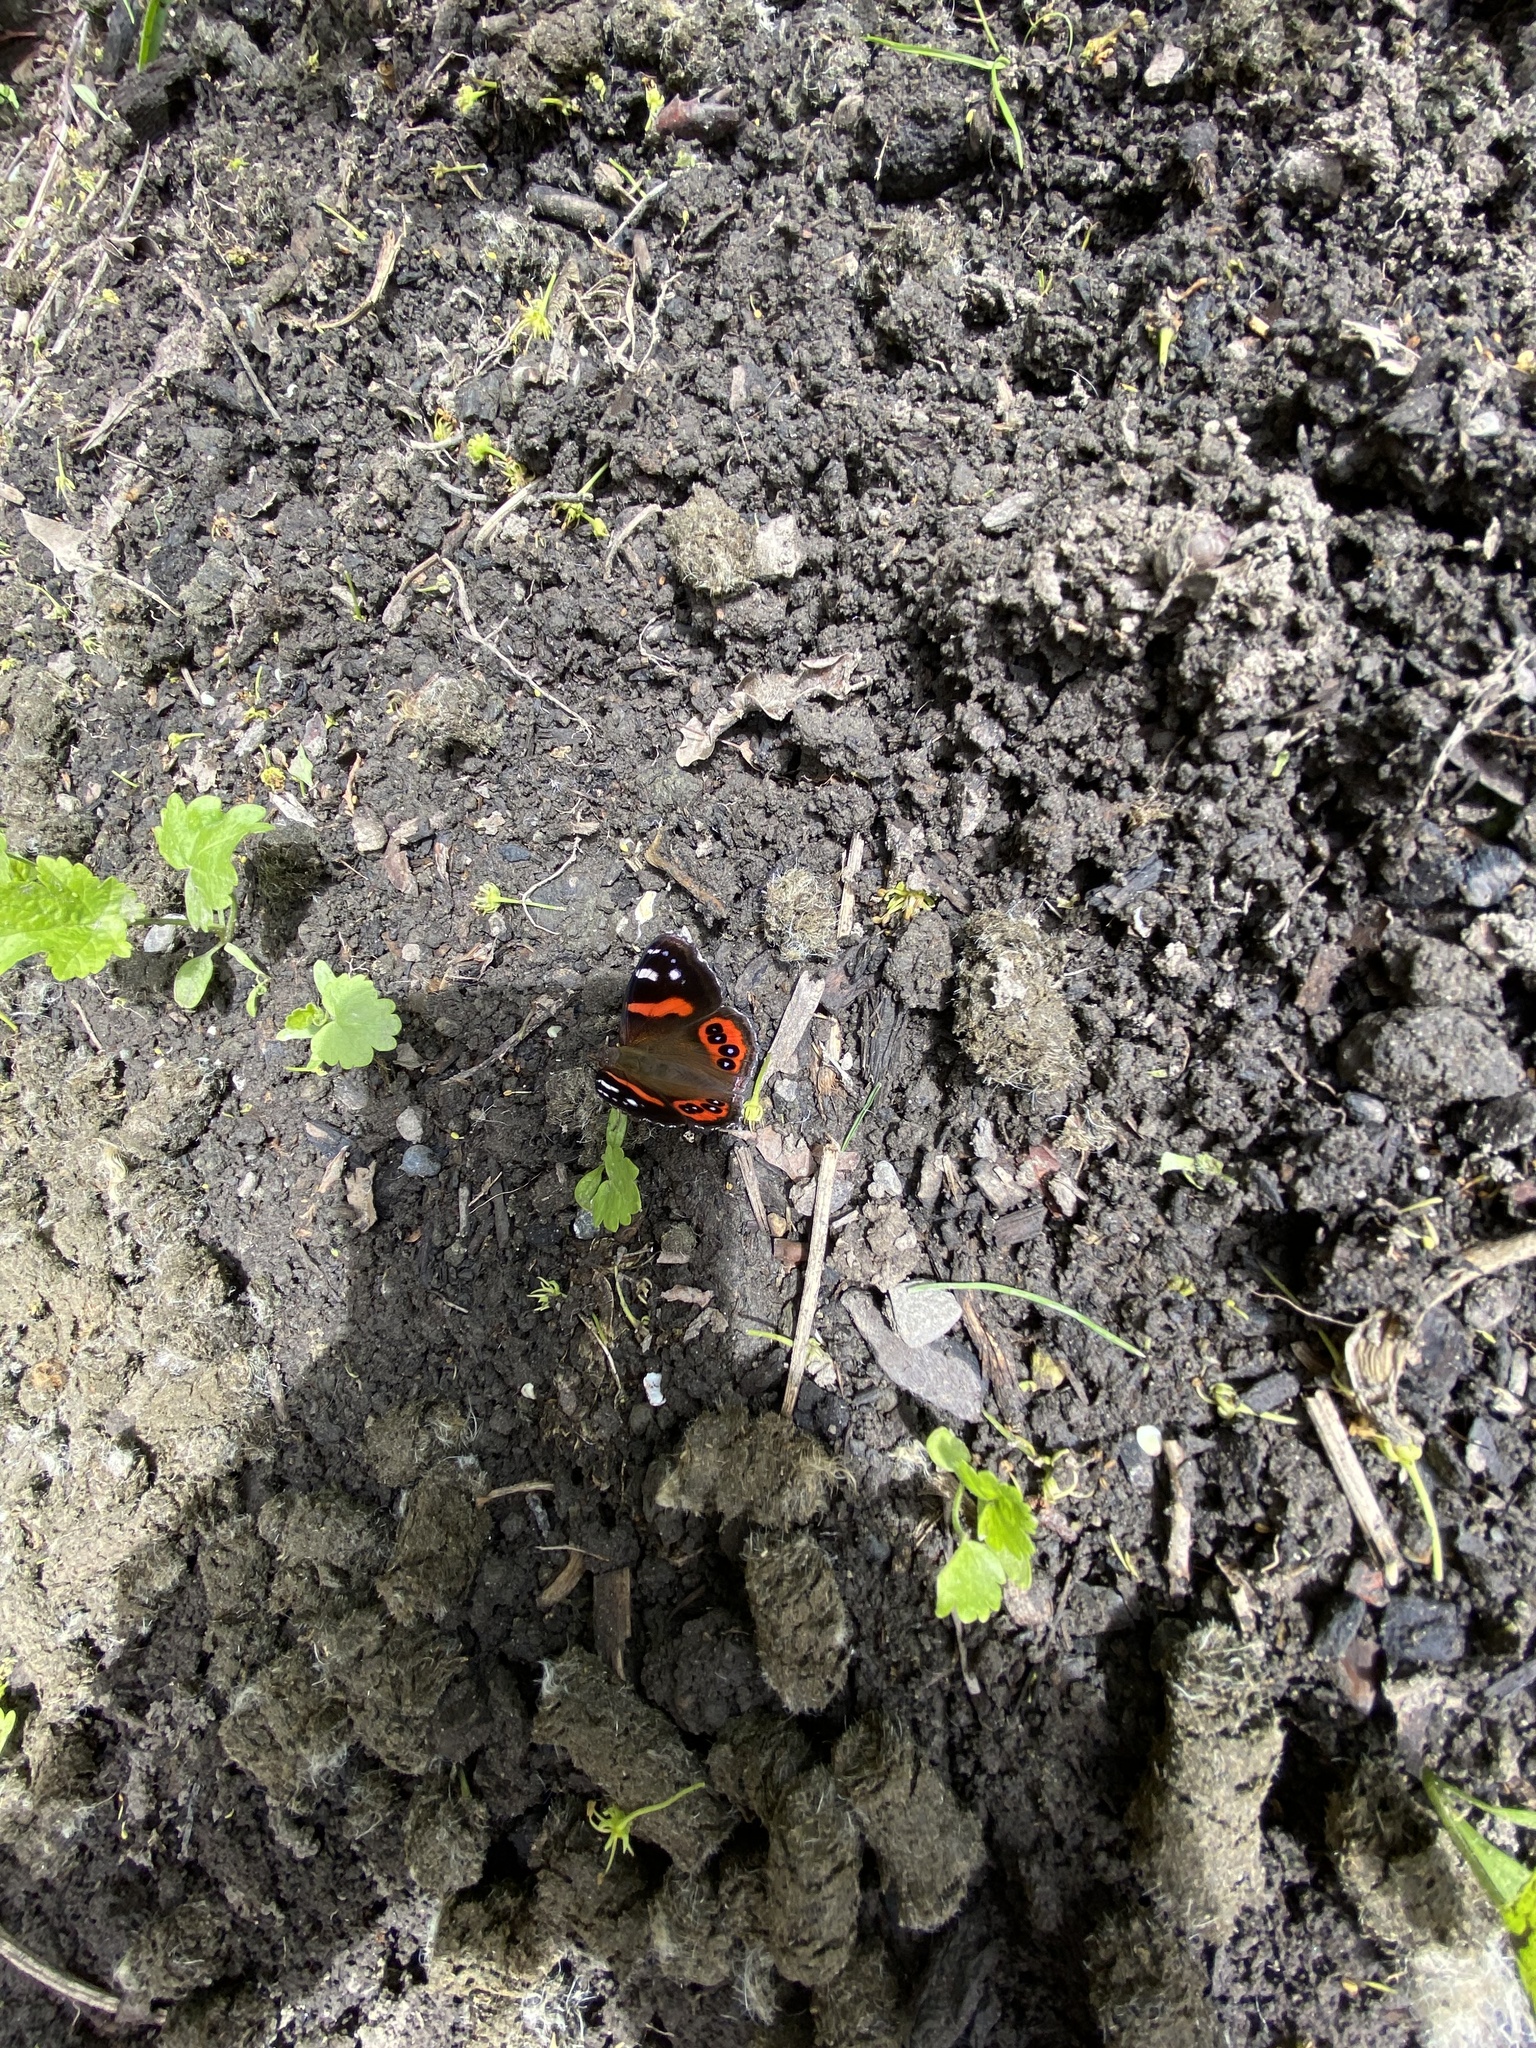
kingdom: Animalia
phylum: Arthropoda
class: Insecta
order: Lepidoptera
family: Nymphalidae
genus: Vanessa
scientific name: Vanessa gonerilla
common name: New zealand red admiral
